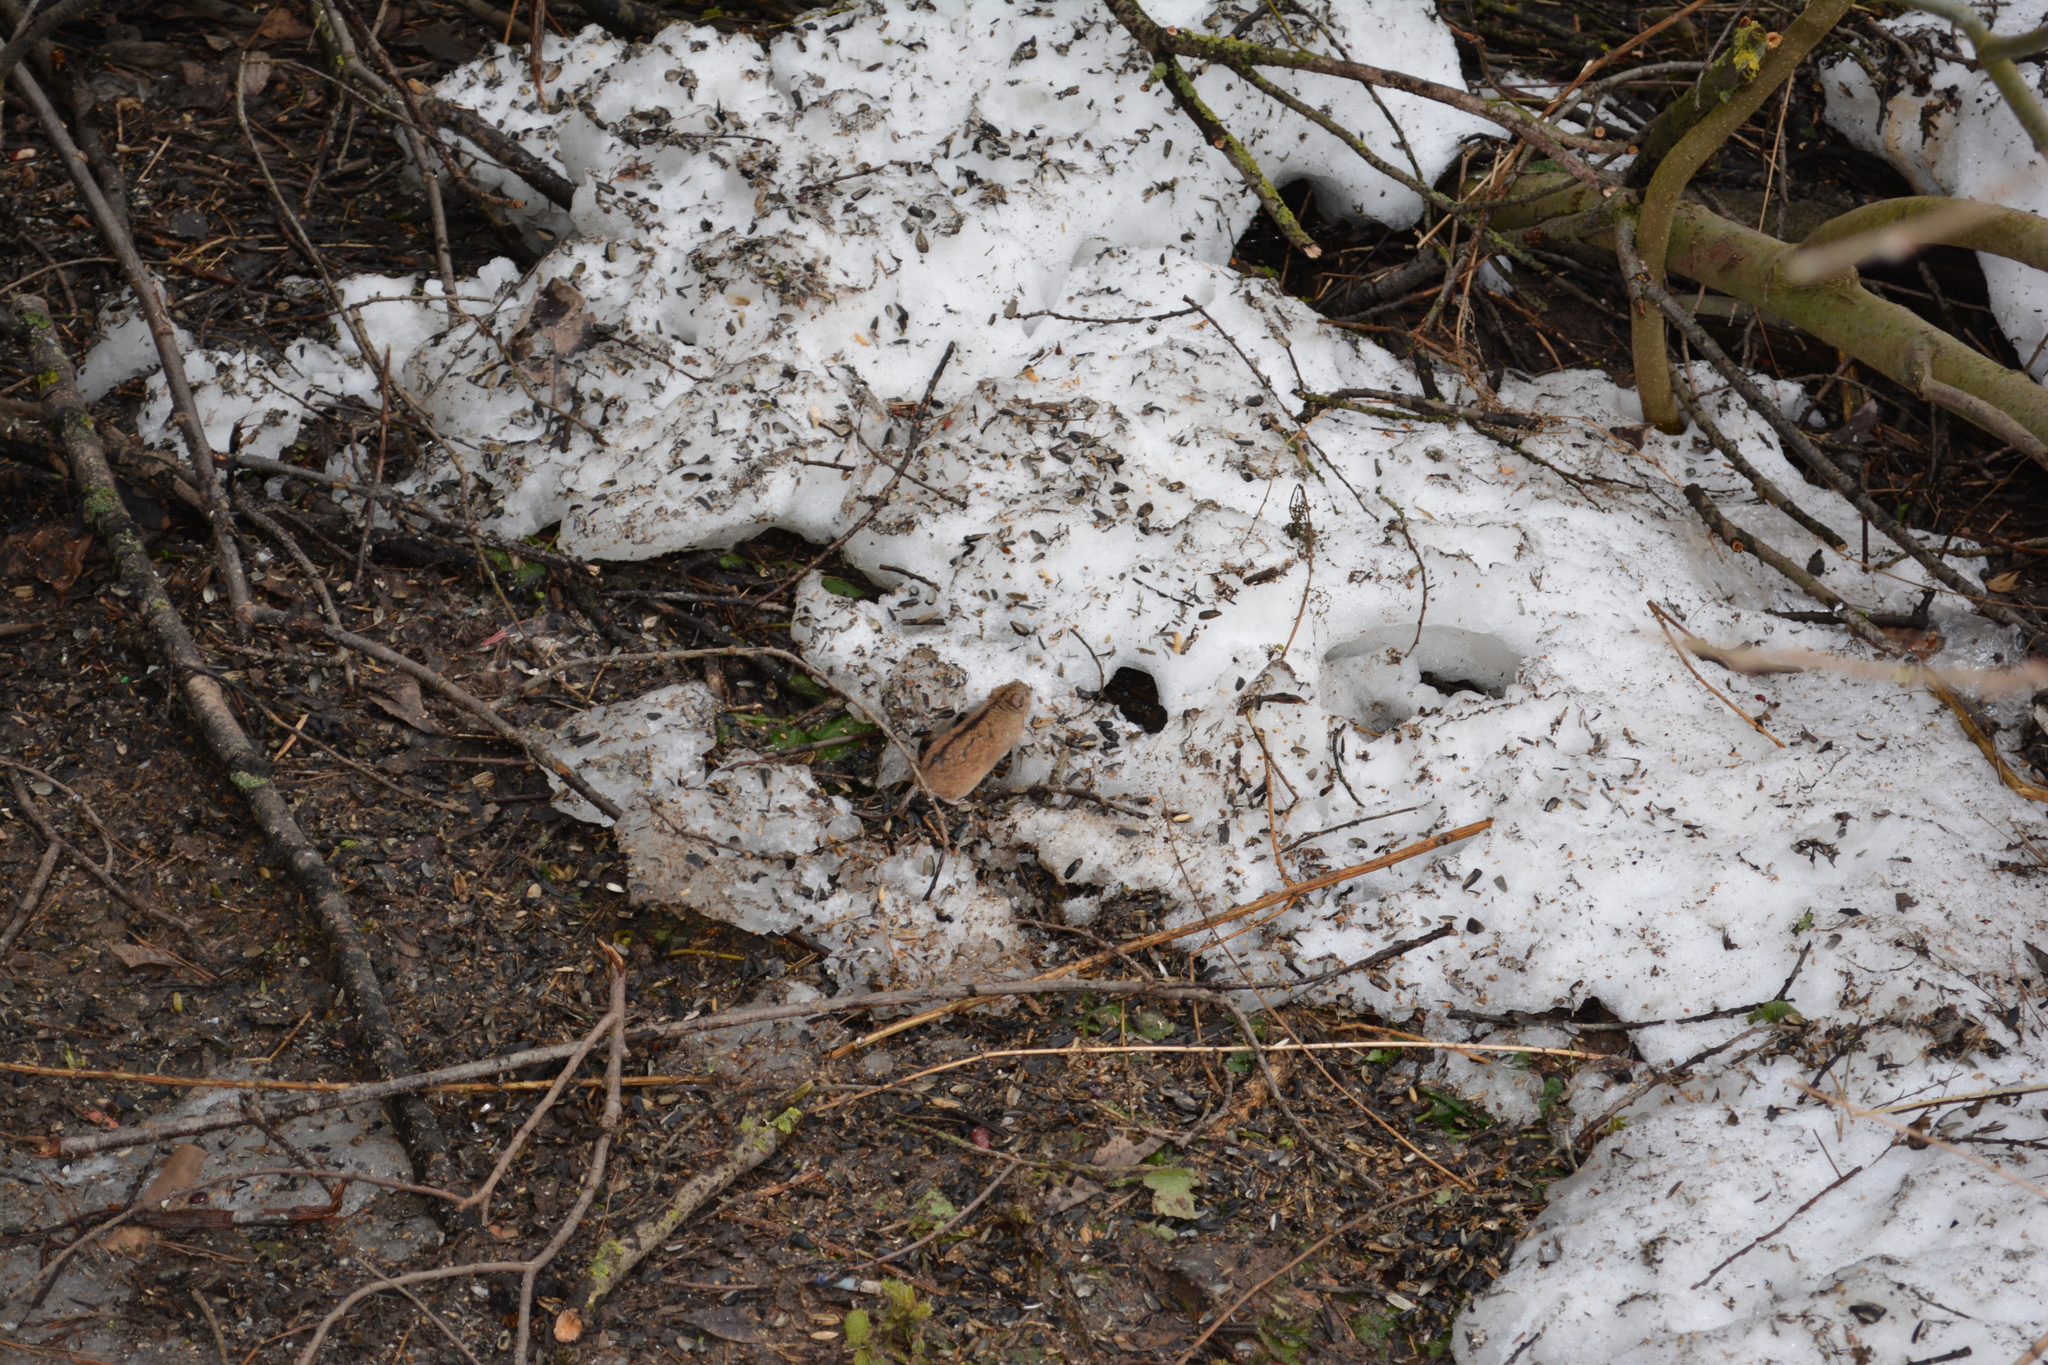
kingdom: Animalia
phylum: Chordata
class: Mammalia
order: Rodentia
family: Muridae
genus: Apodemus
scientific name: Apodemus agrarius
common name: Striped field mouse
